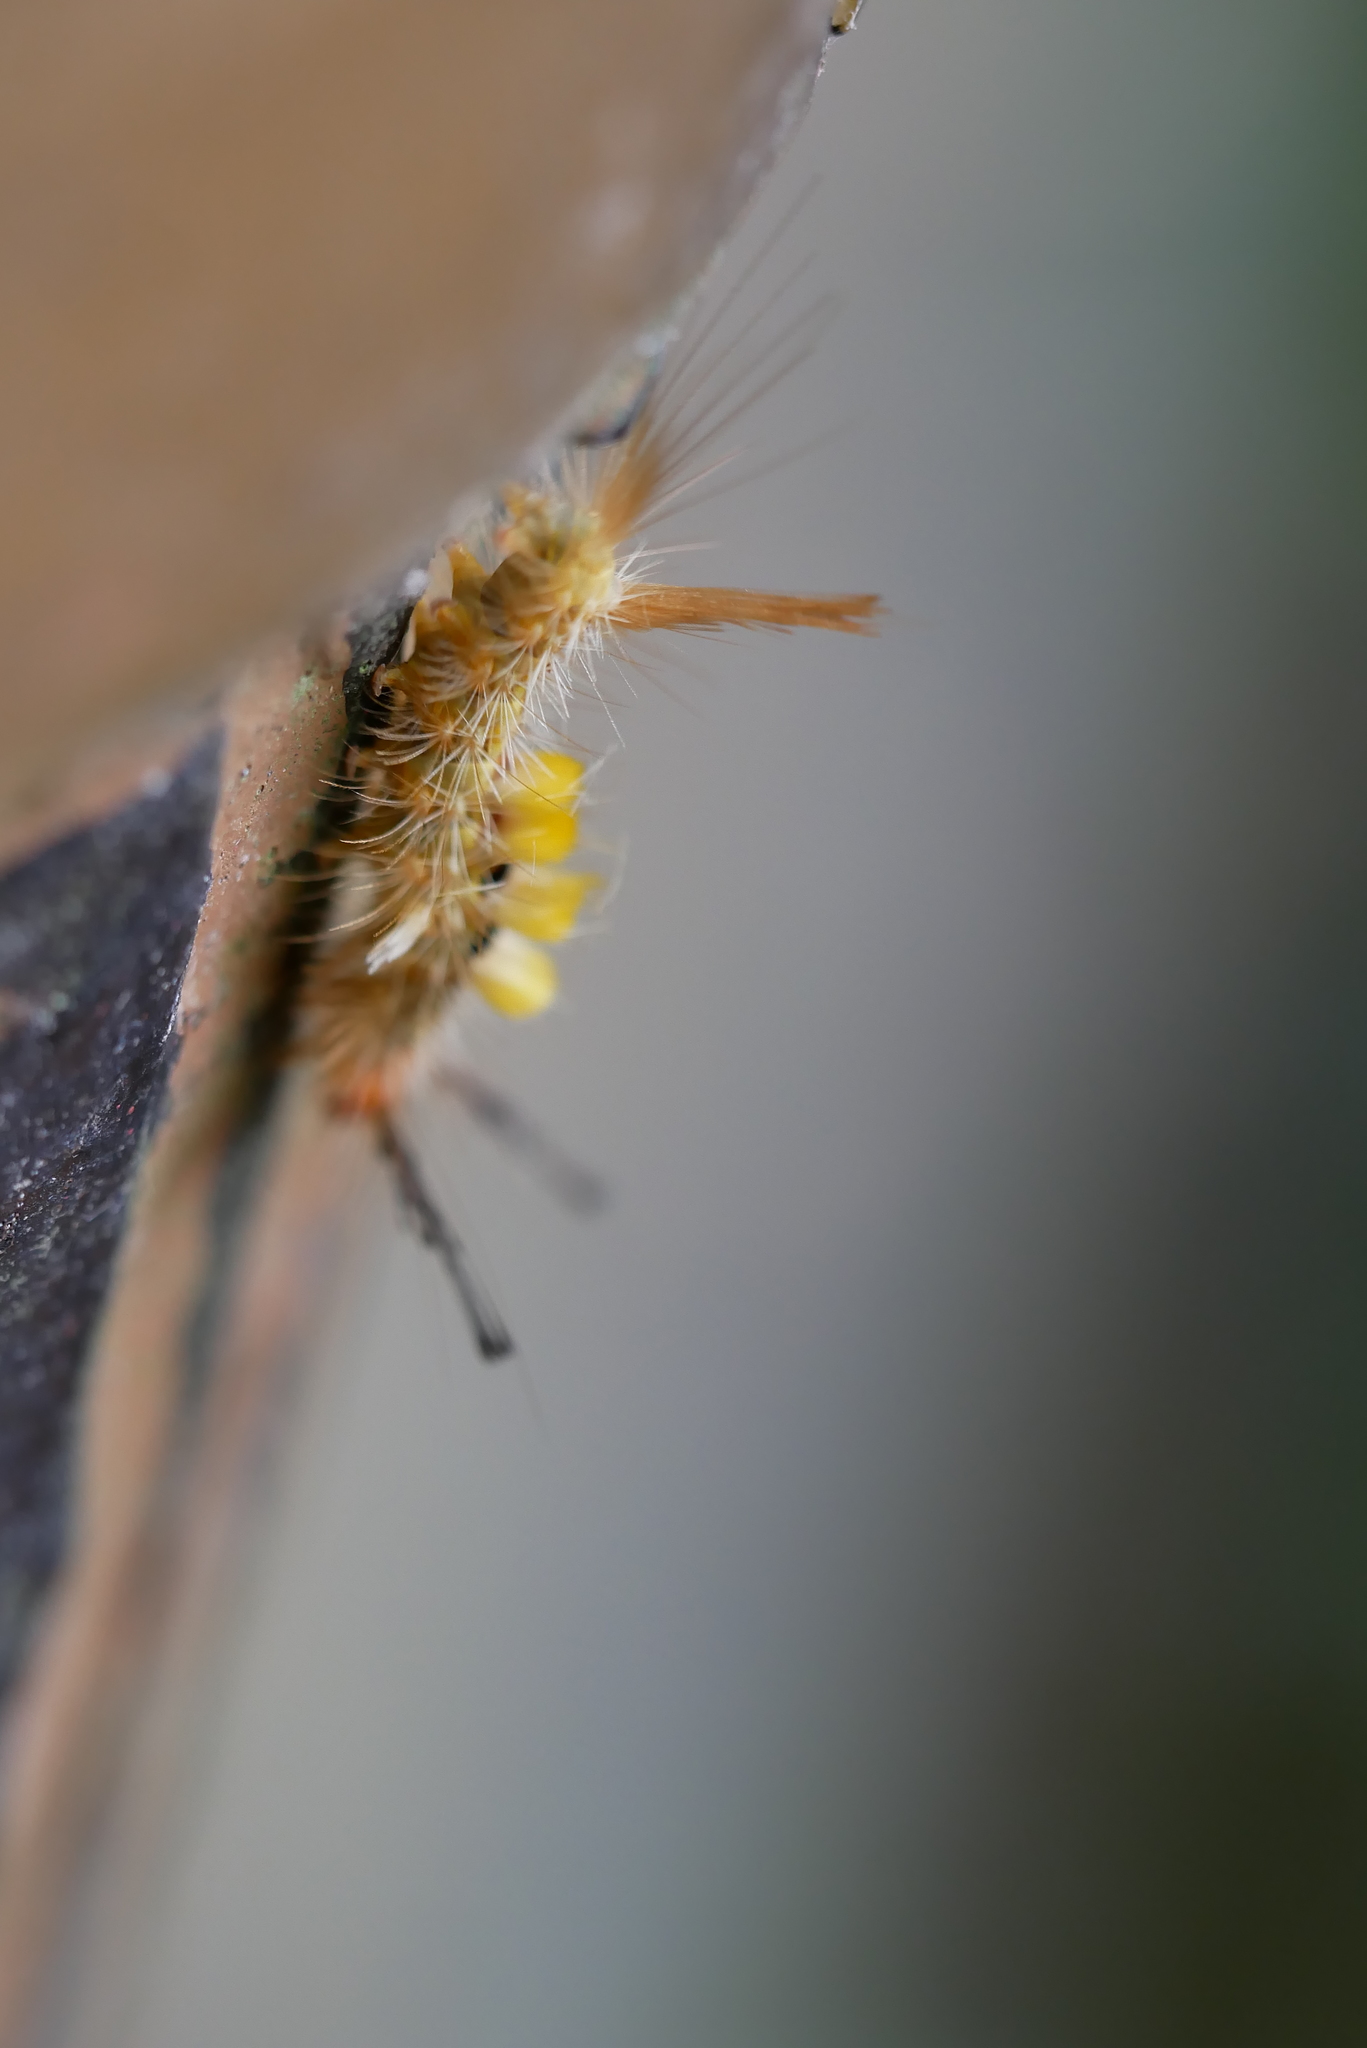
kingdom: Animalia
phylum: Arthropoda
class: Insecta
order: Lepidoptera
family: Erebidae
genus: Orgyia
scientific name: Orgyia postica
